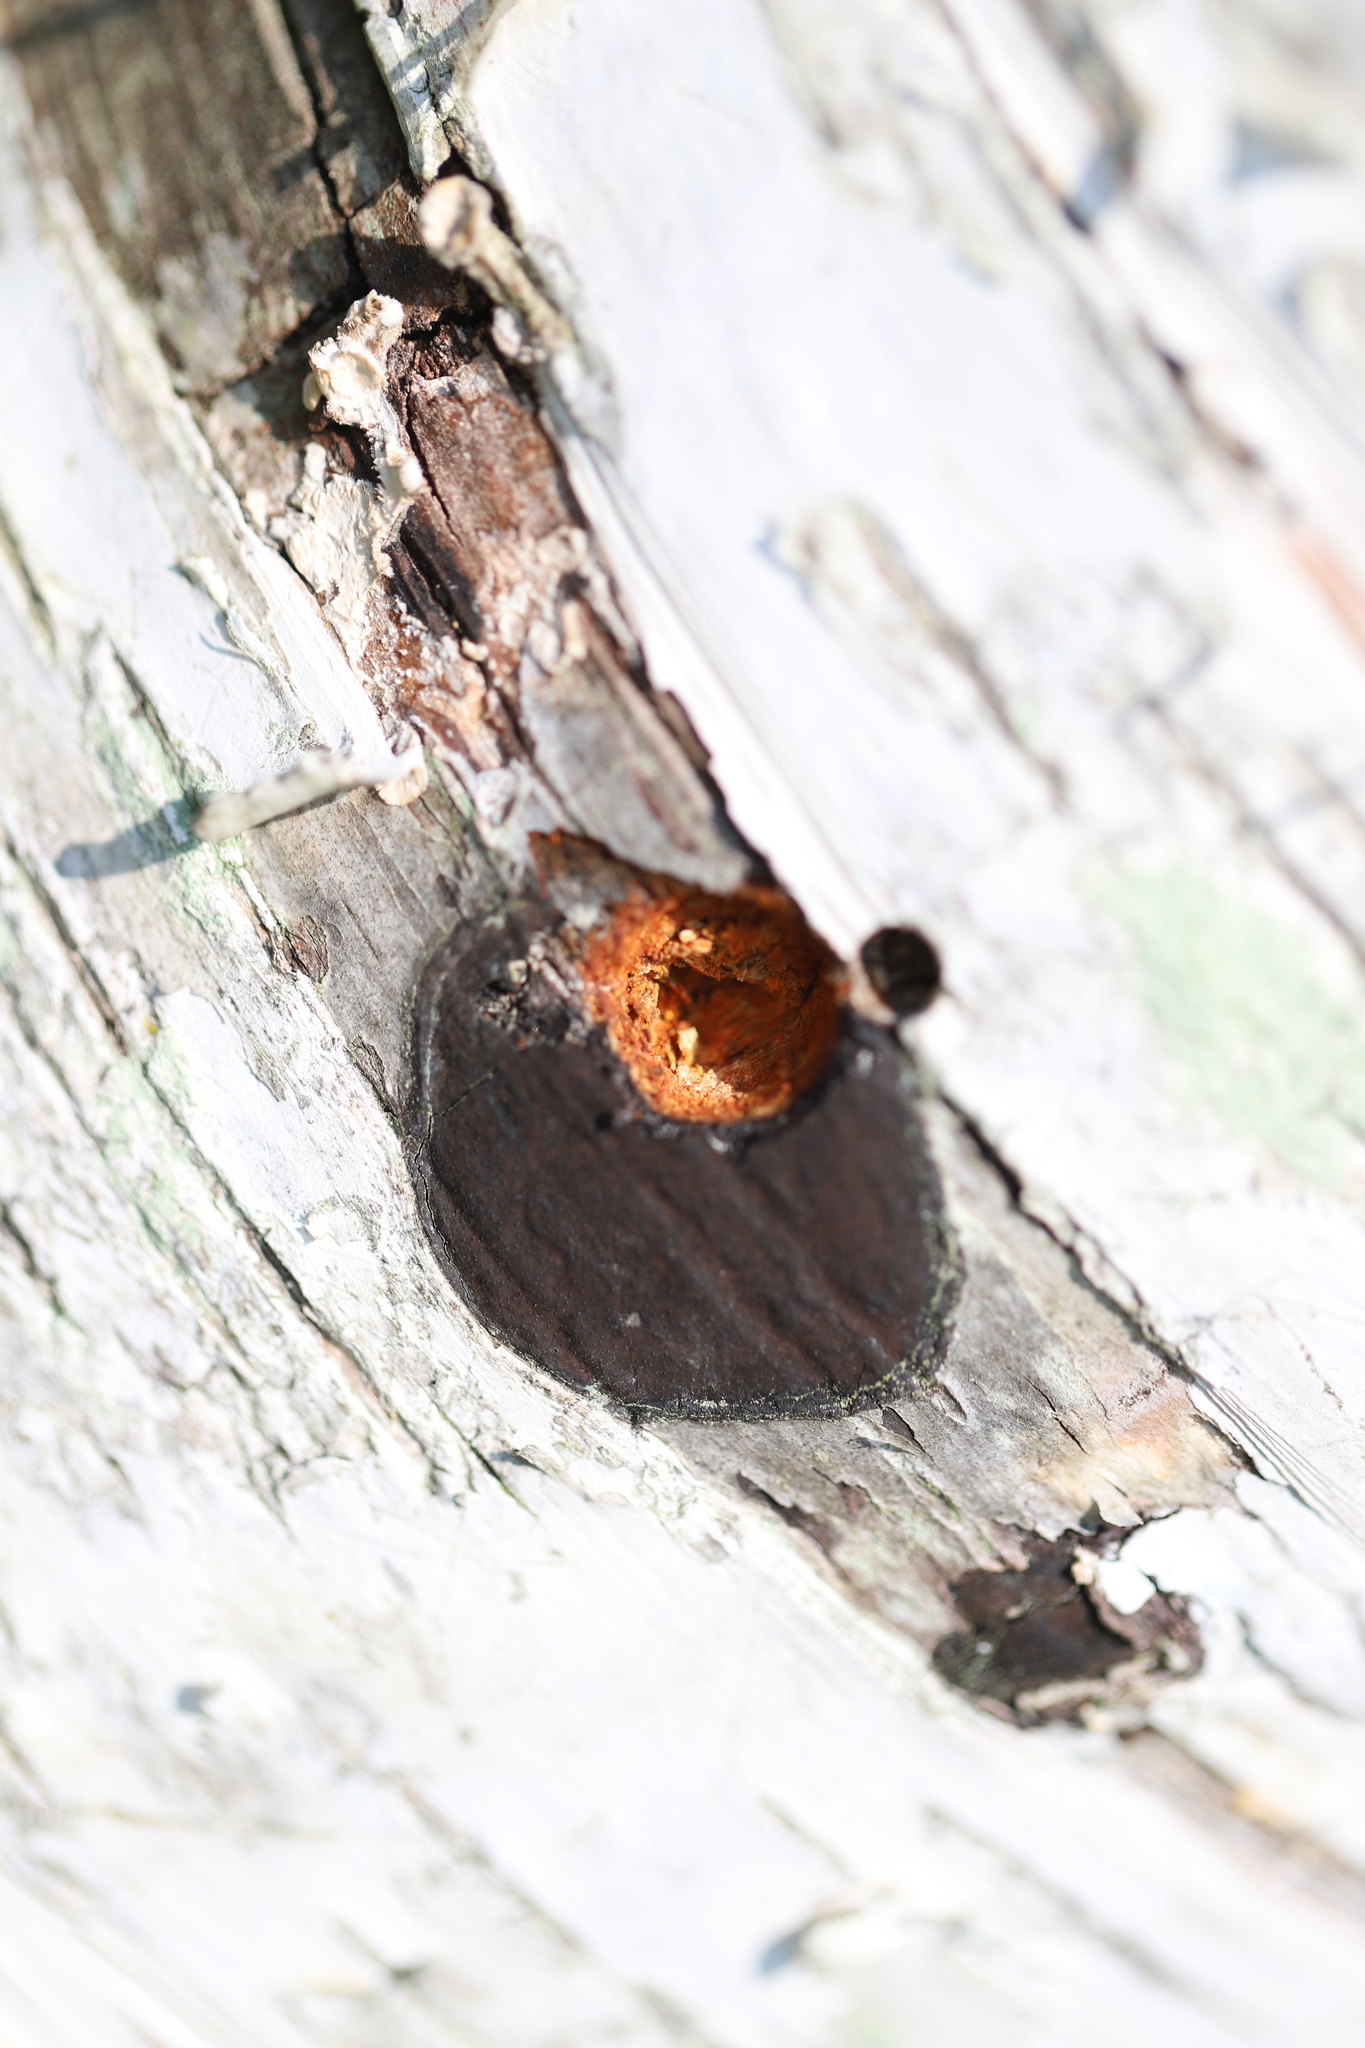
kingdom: Fungi
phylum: Ascomycota
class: Sordariomycetes
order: Xylariales
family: Graphostromataceae
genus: Camillea
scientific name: Camillea tinctor
